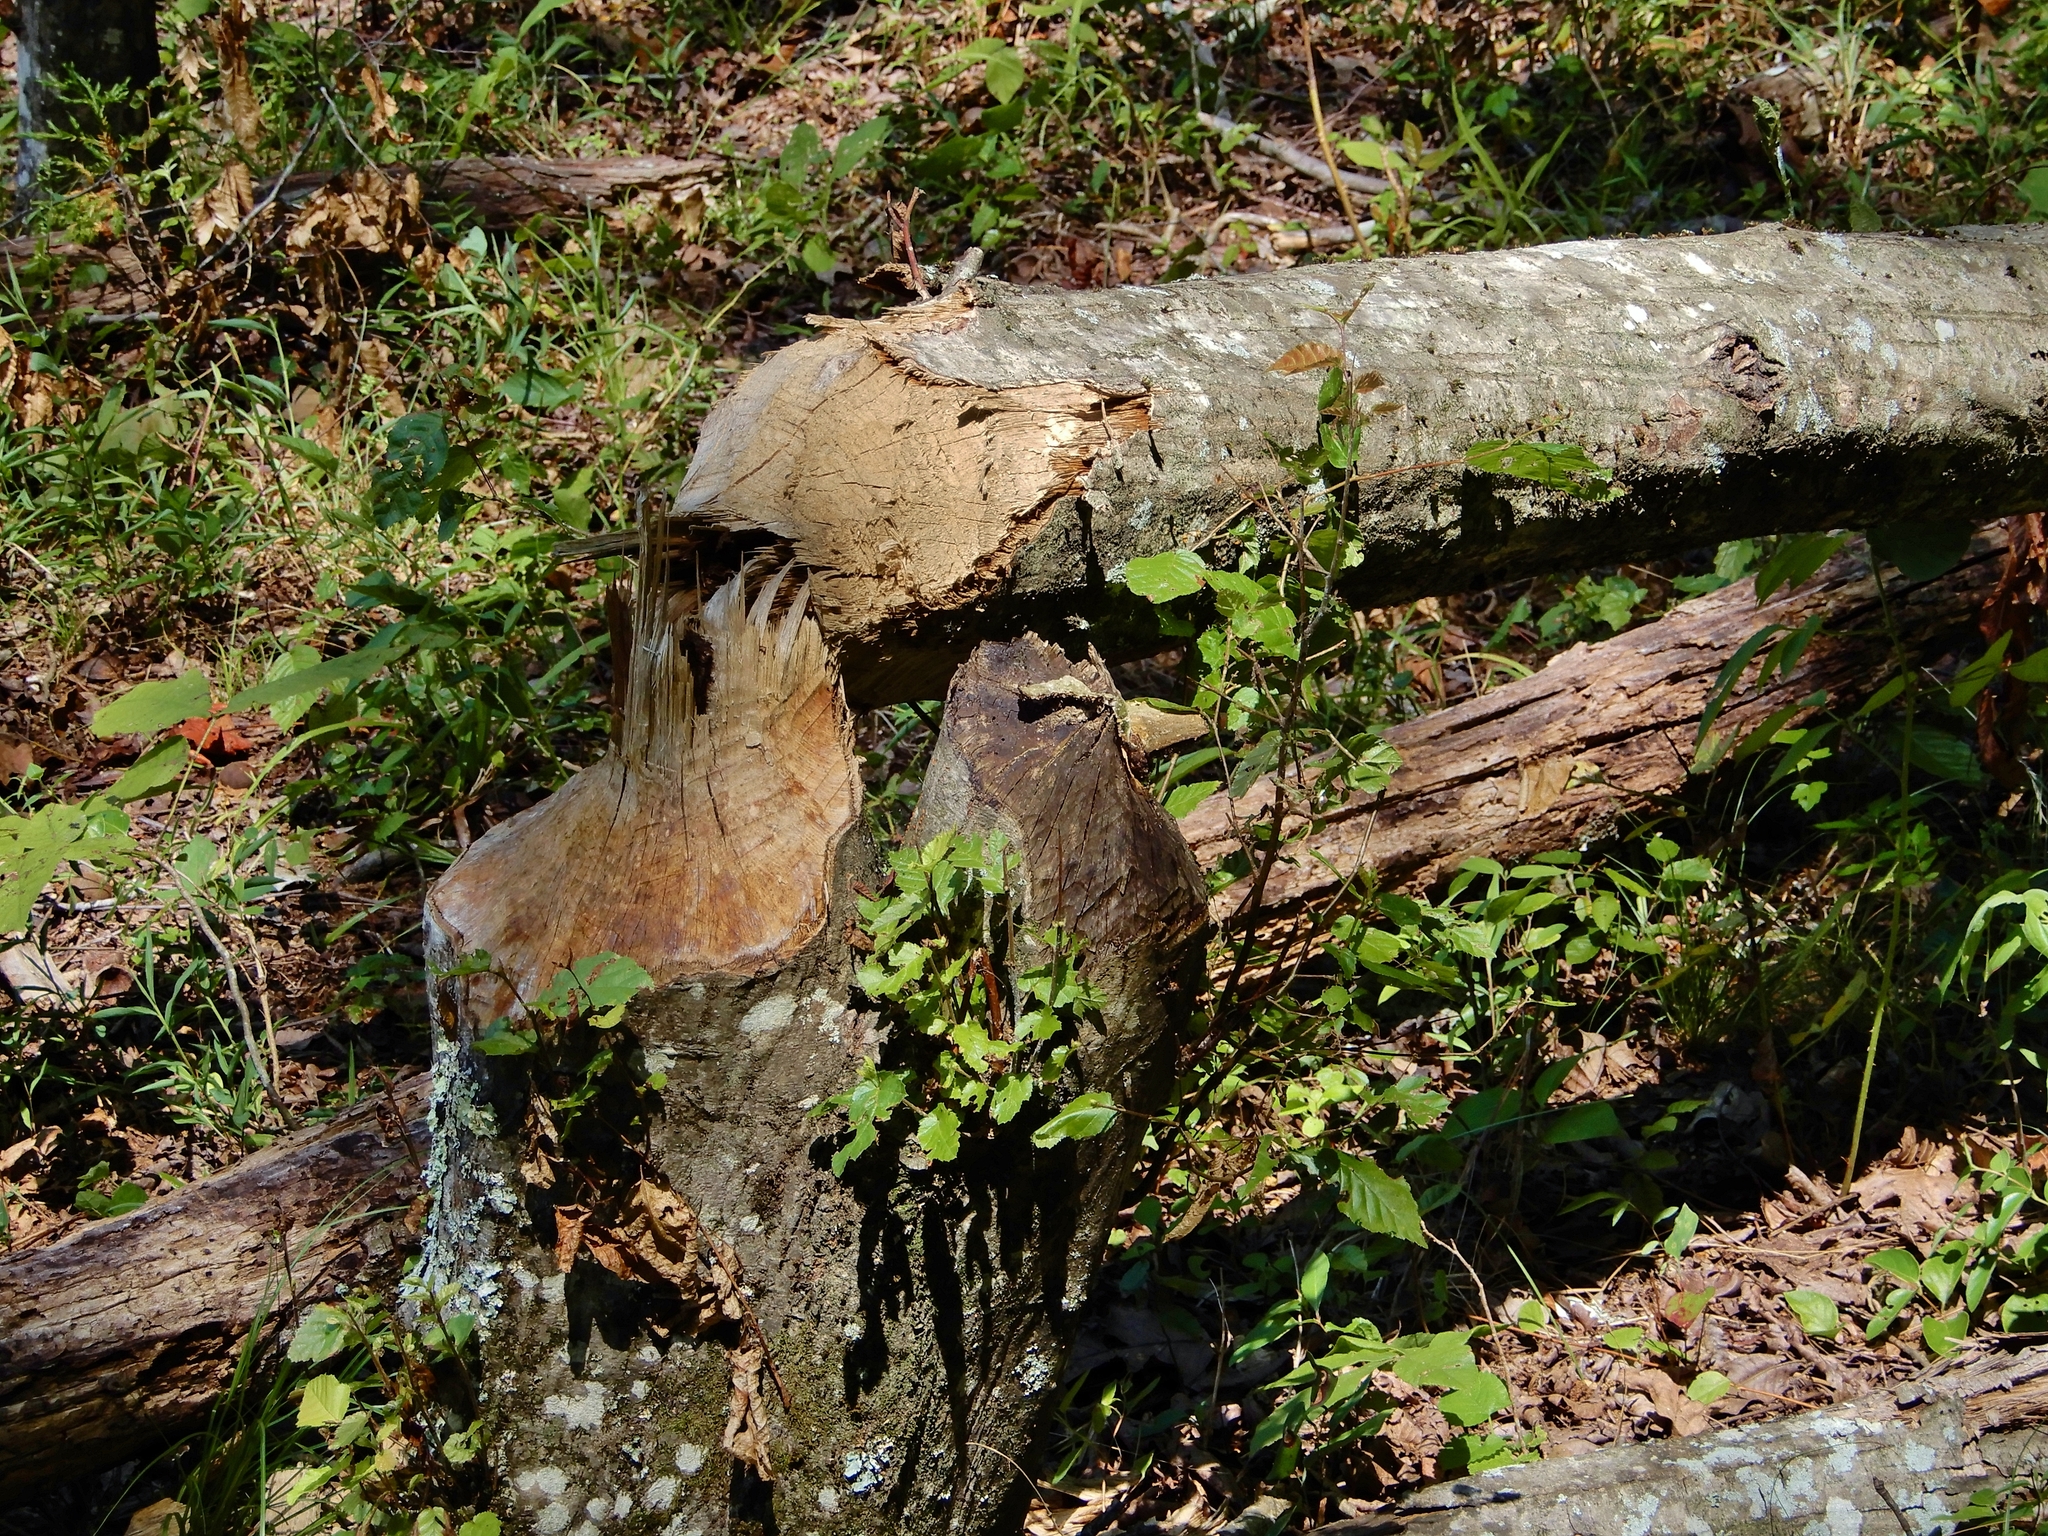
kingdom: Animalia
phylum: Chordata
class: Mammalia
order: Rodentia
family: Castoridae
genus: Castor
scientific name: Castor canadensis
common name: American beaver
